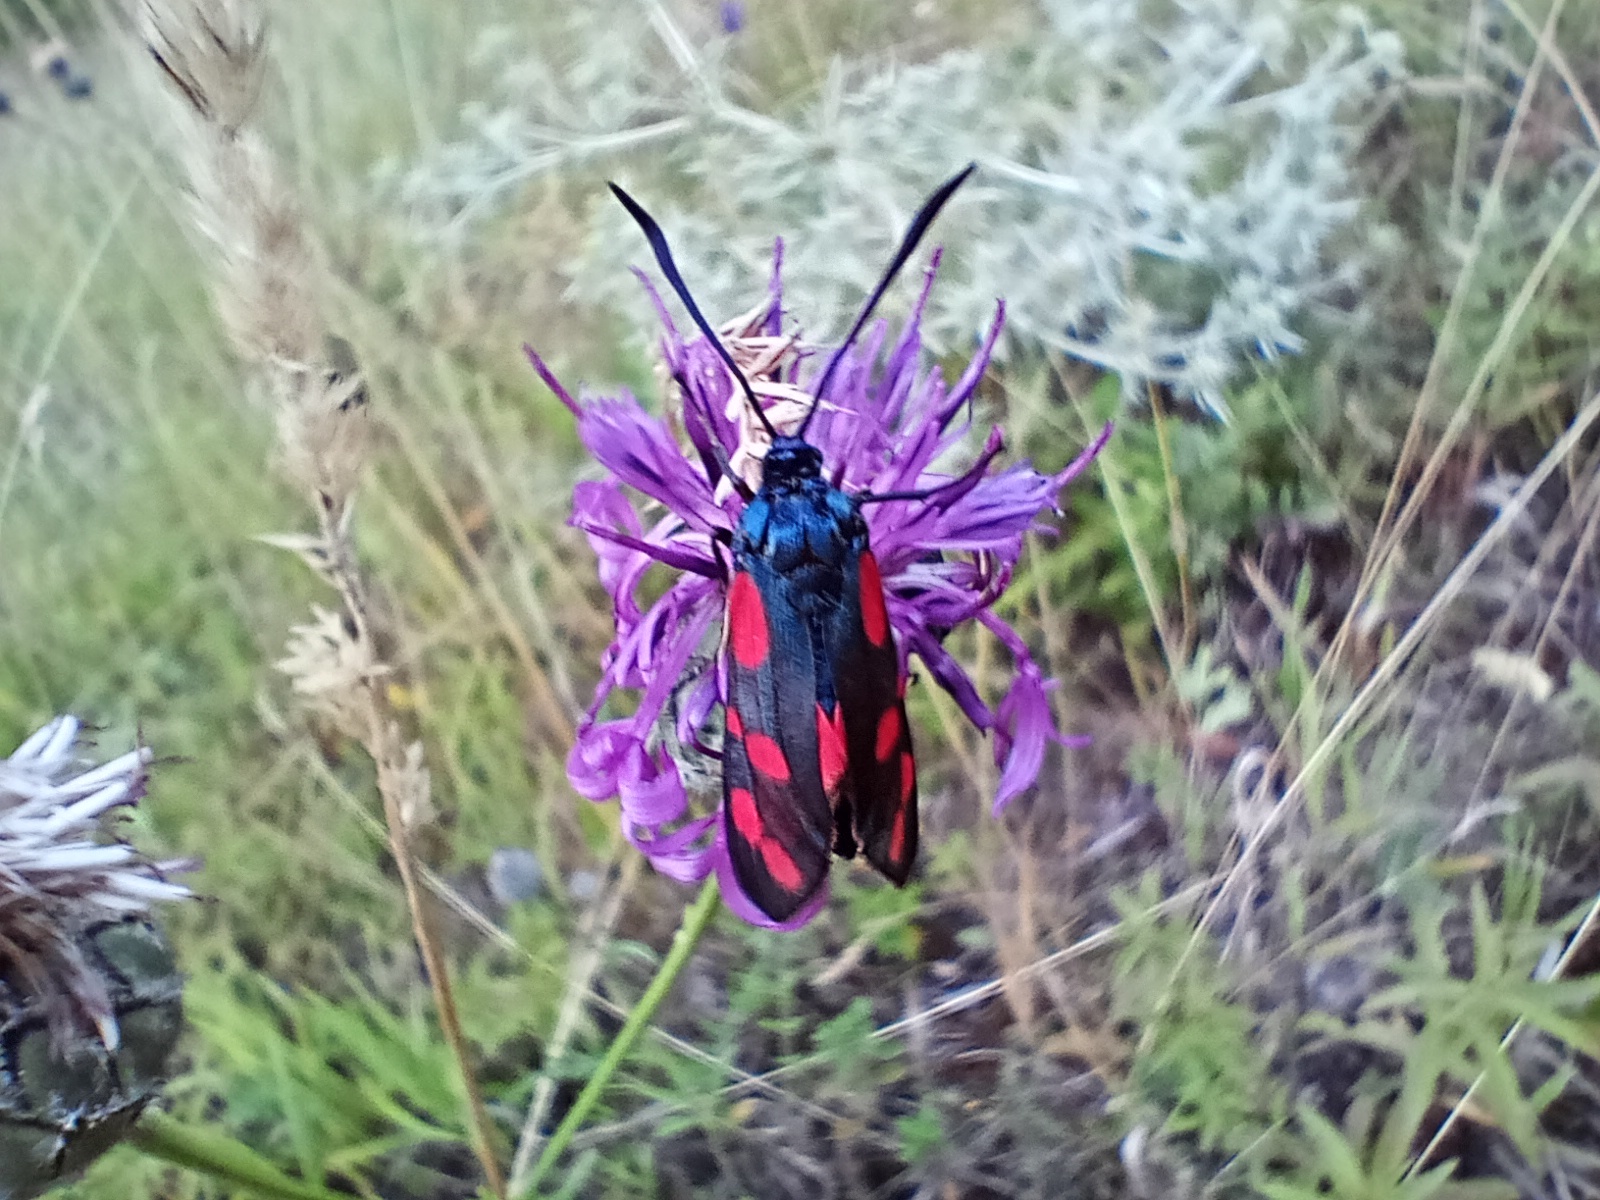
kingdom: Animalia
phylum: Arthropoda
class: Insecta
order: Lepidoptera
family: Zygaenidae
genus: Zygaena
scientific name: Zygaena filipendulae
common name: Six-spot burnet
